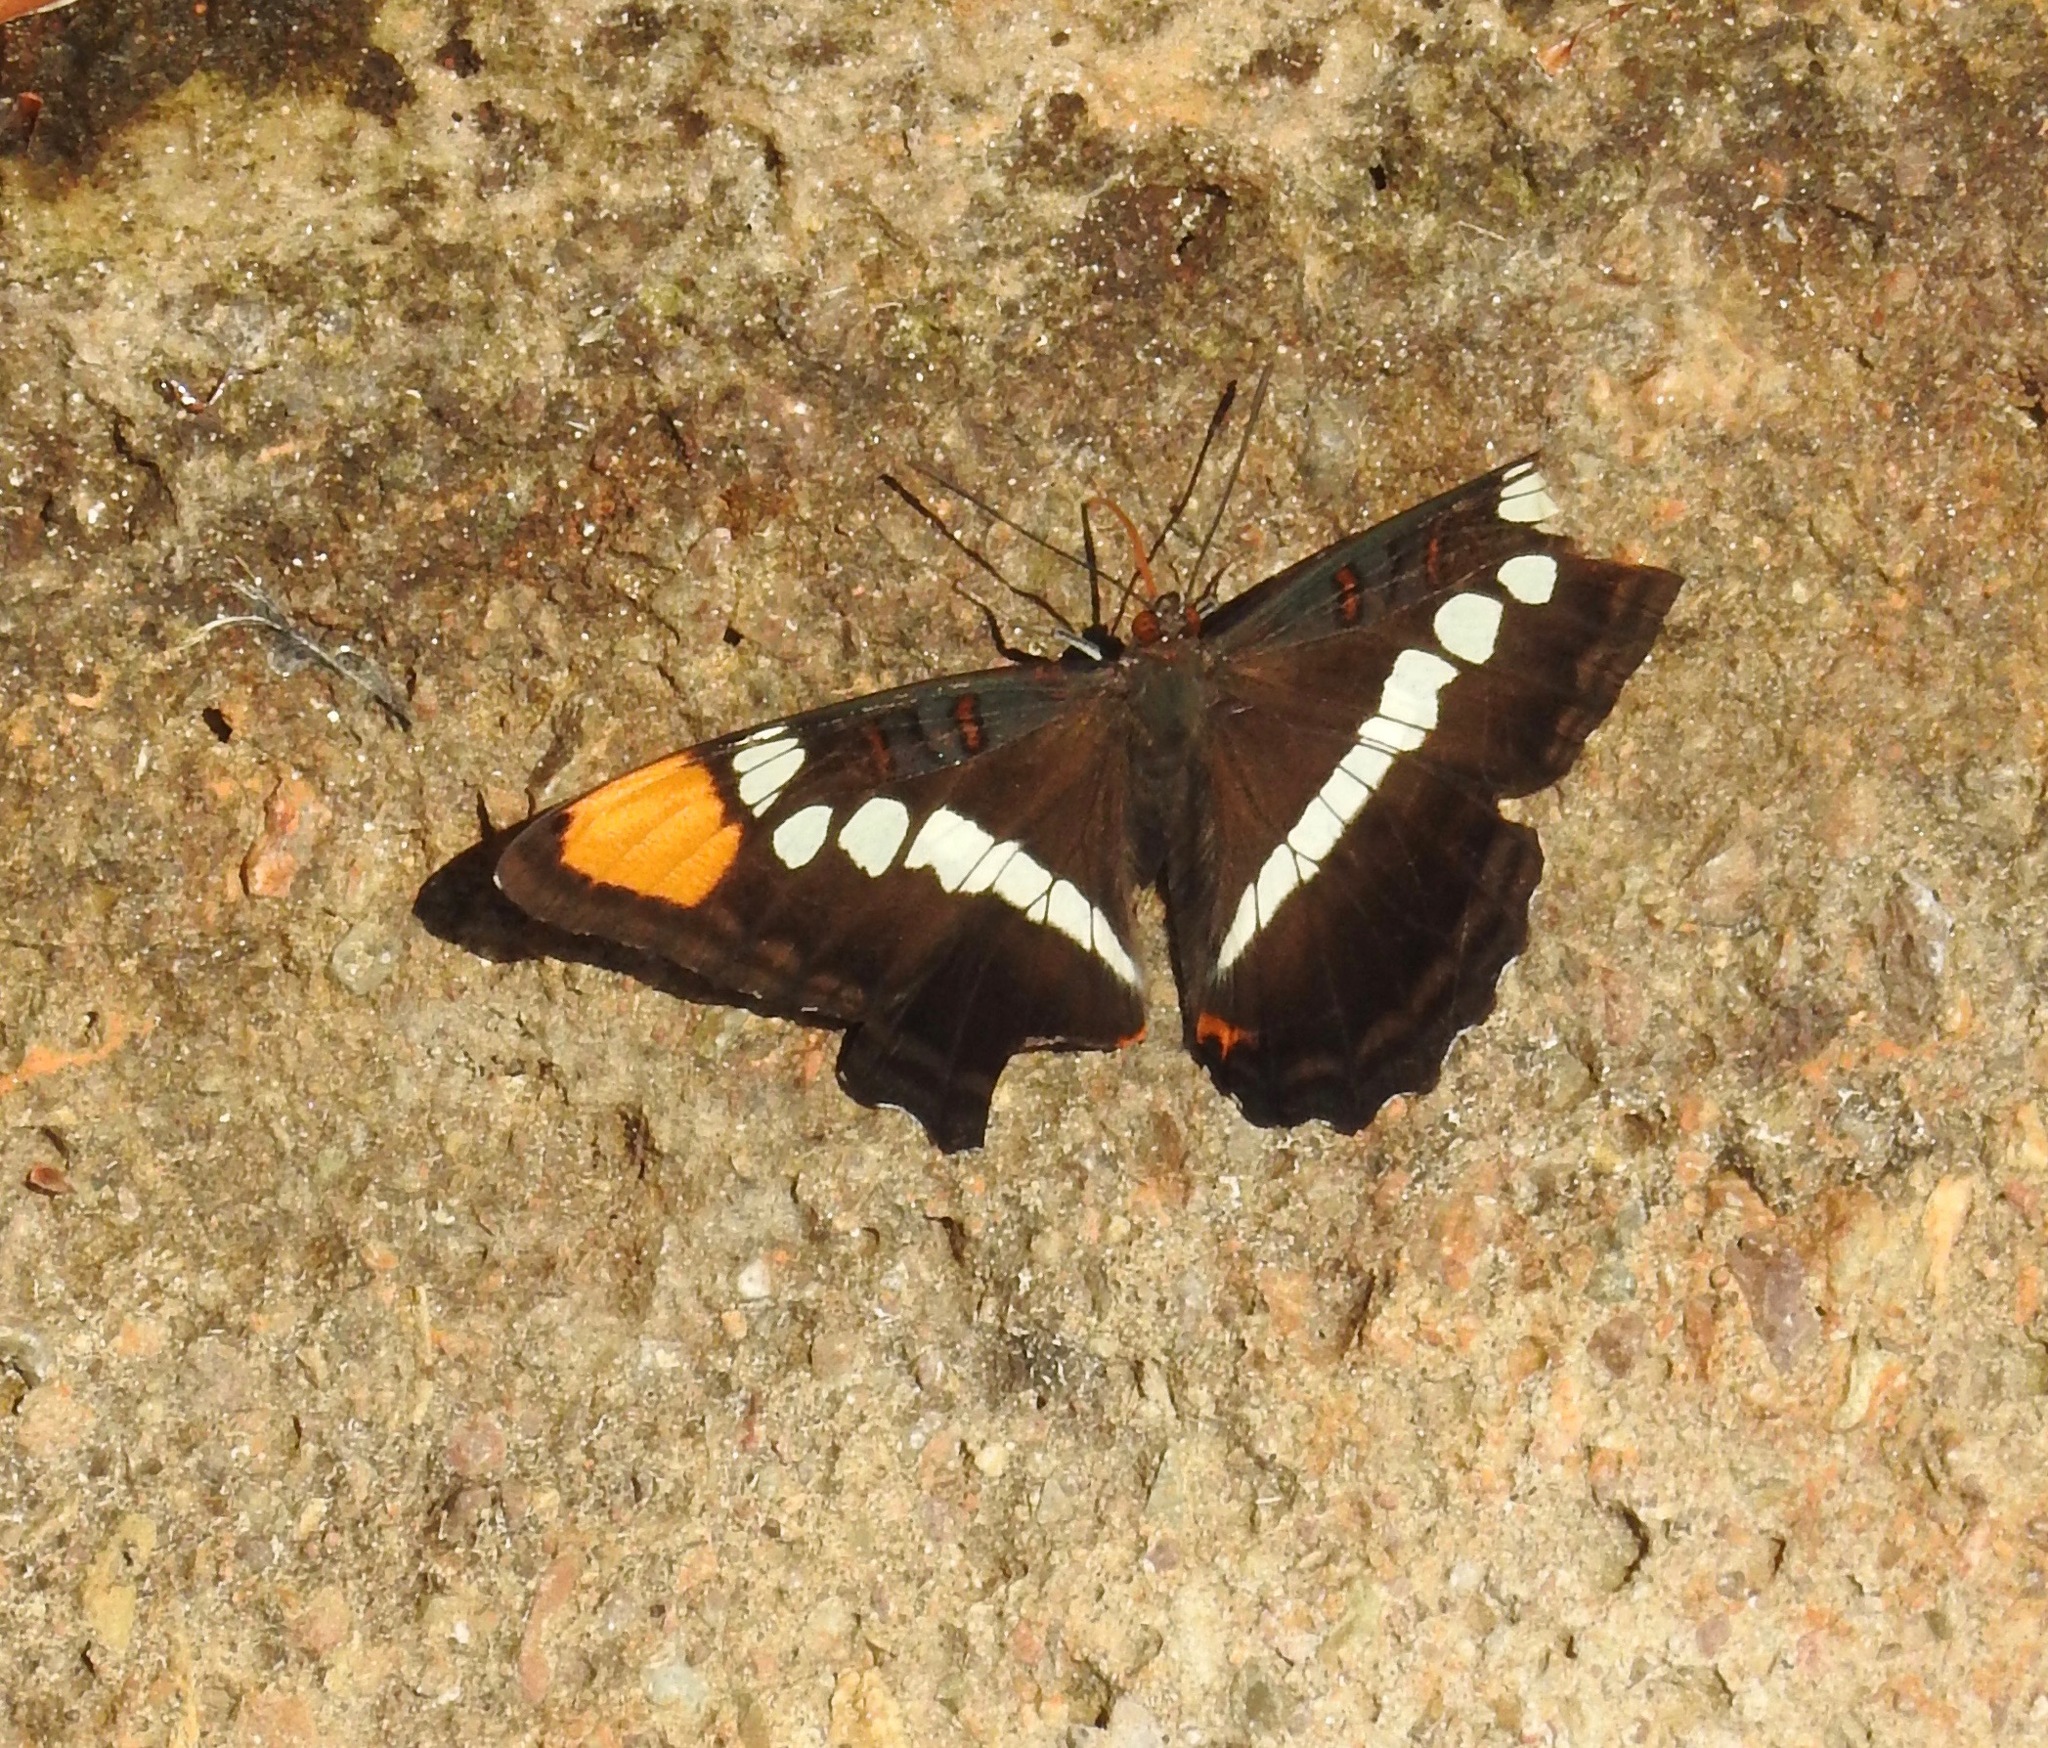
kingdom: Animalia
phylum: Arthropoda
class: Insecta
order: Lepidoptera
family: Nymphalidae
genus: Limenitis
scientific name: Limenitis bredowii
